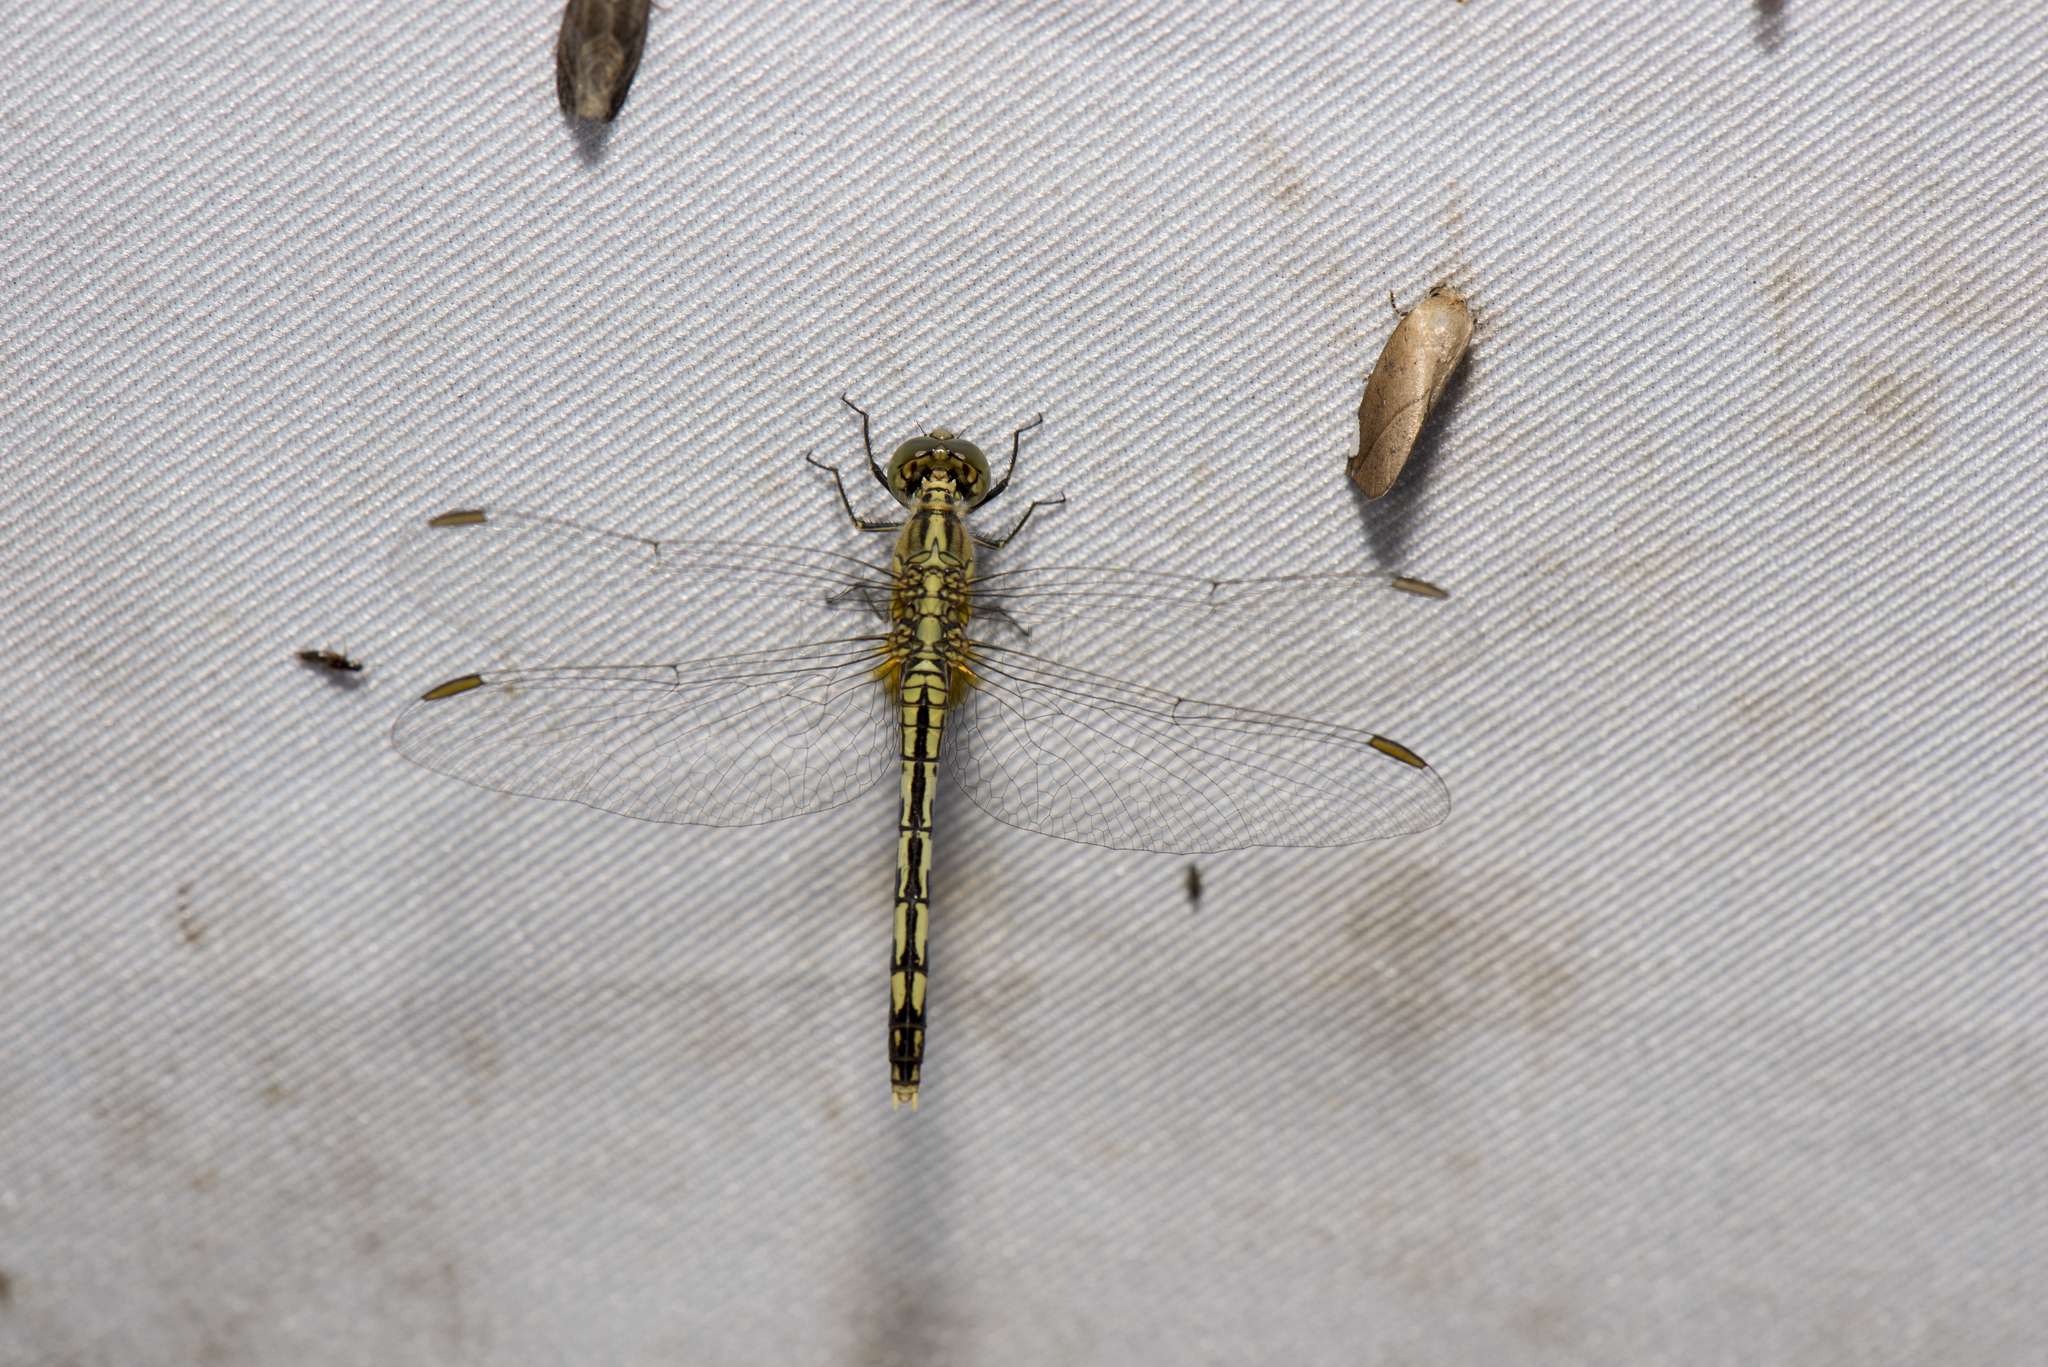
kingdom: Animalia
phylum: Arthropoda
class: Insecta
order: Odonata
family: Libellulidae
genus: Diplacodes
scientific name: Diplacodes trivialis
